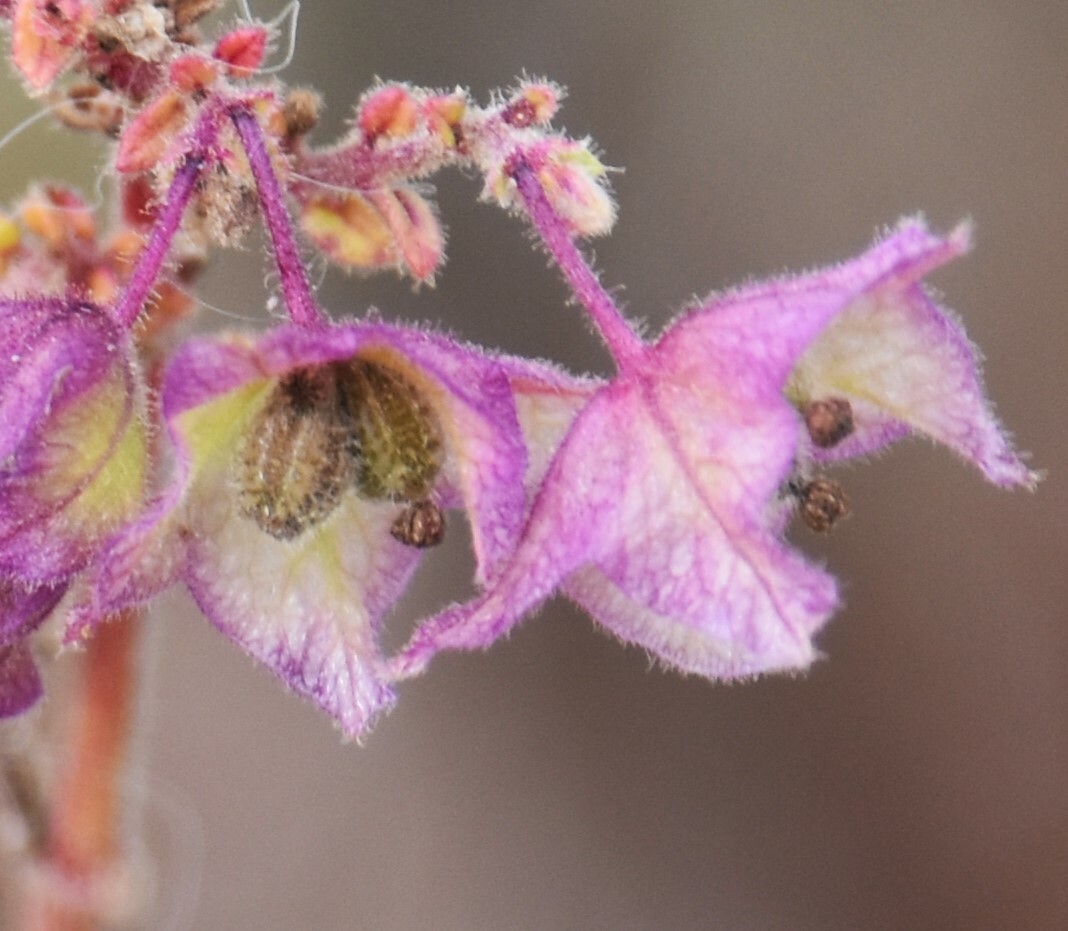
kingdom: Plantae
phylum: Tracheophyta
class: Magnoliopsida
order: Caryophyllales
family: Nyctaginaceae
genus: Mirabilis
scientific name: Mirabilis albida
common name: Hairy four-o'clock
